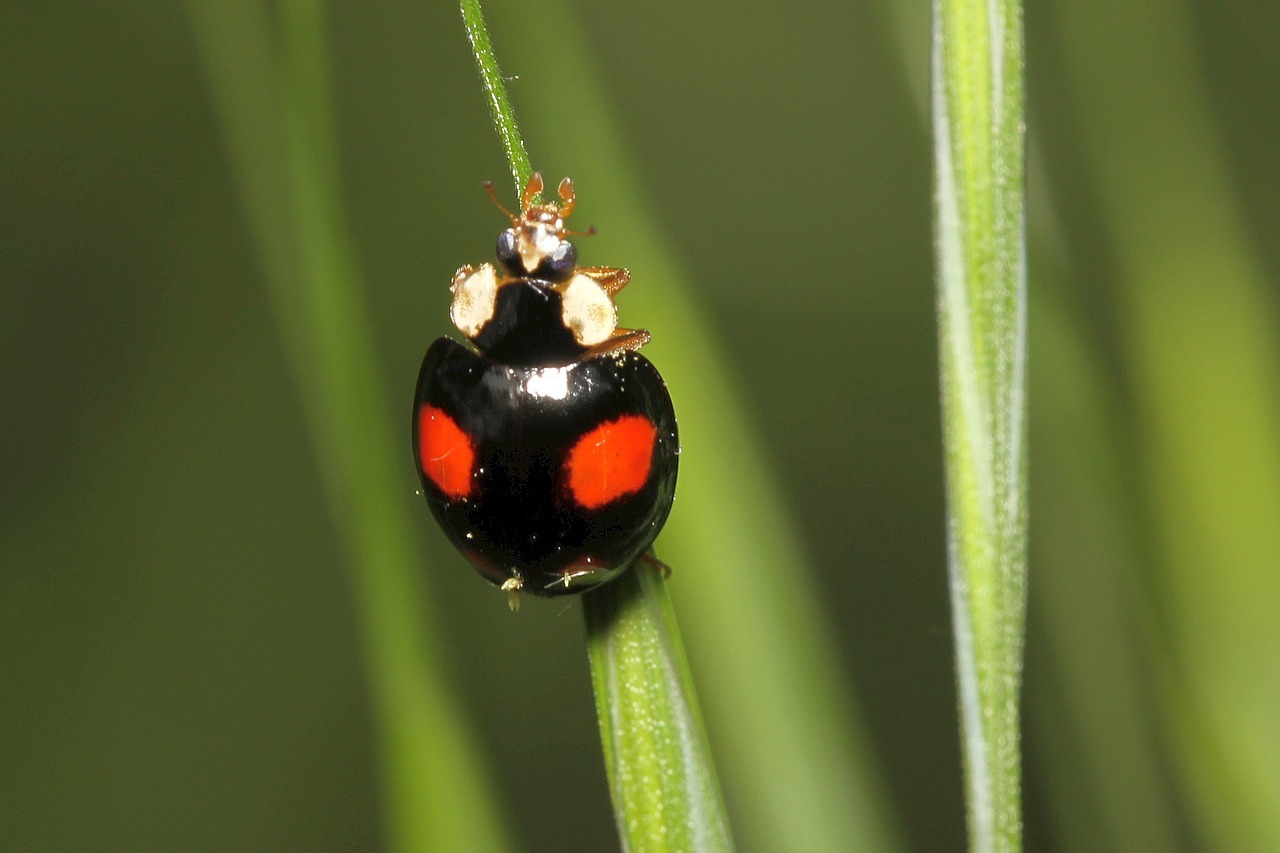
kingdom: Animalia
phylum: Arthropoda
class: Insecta
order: Coleoptera
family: Coccinellidae
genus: Harmonia
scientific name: Harmonia axyridis
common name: Harlequin ladybird
